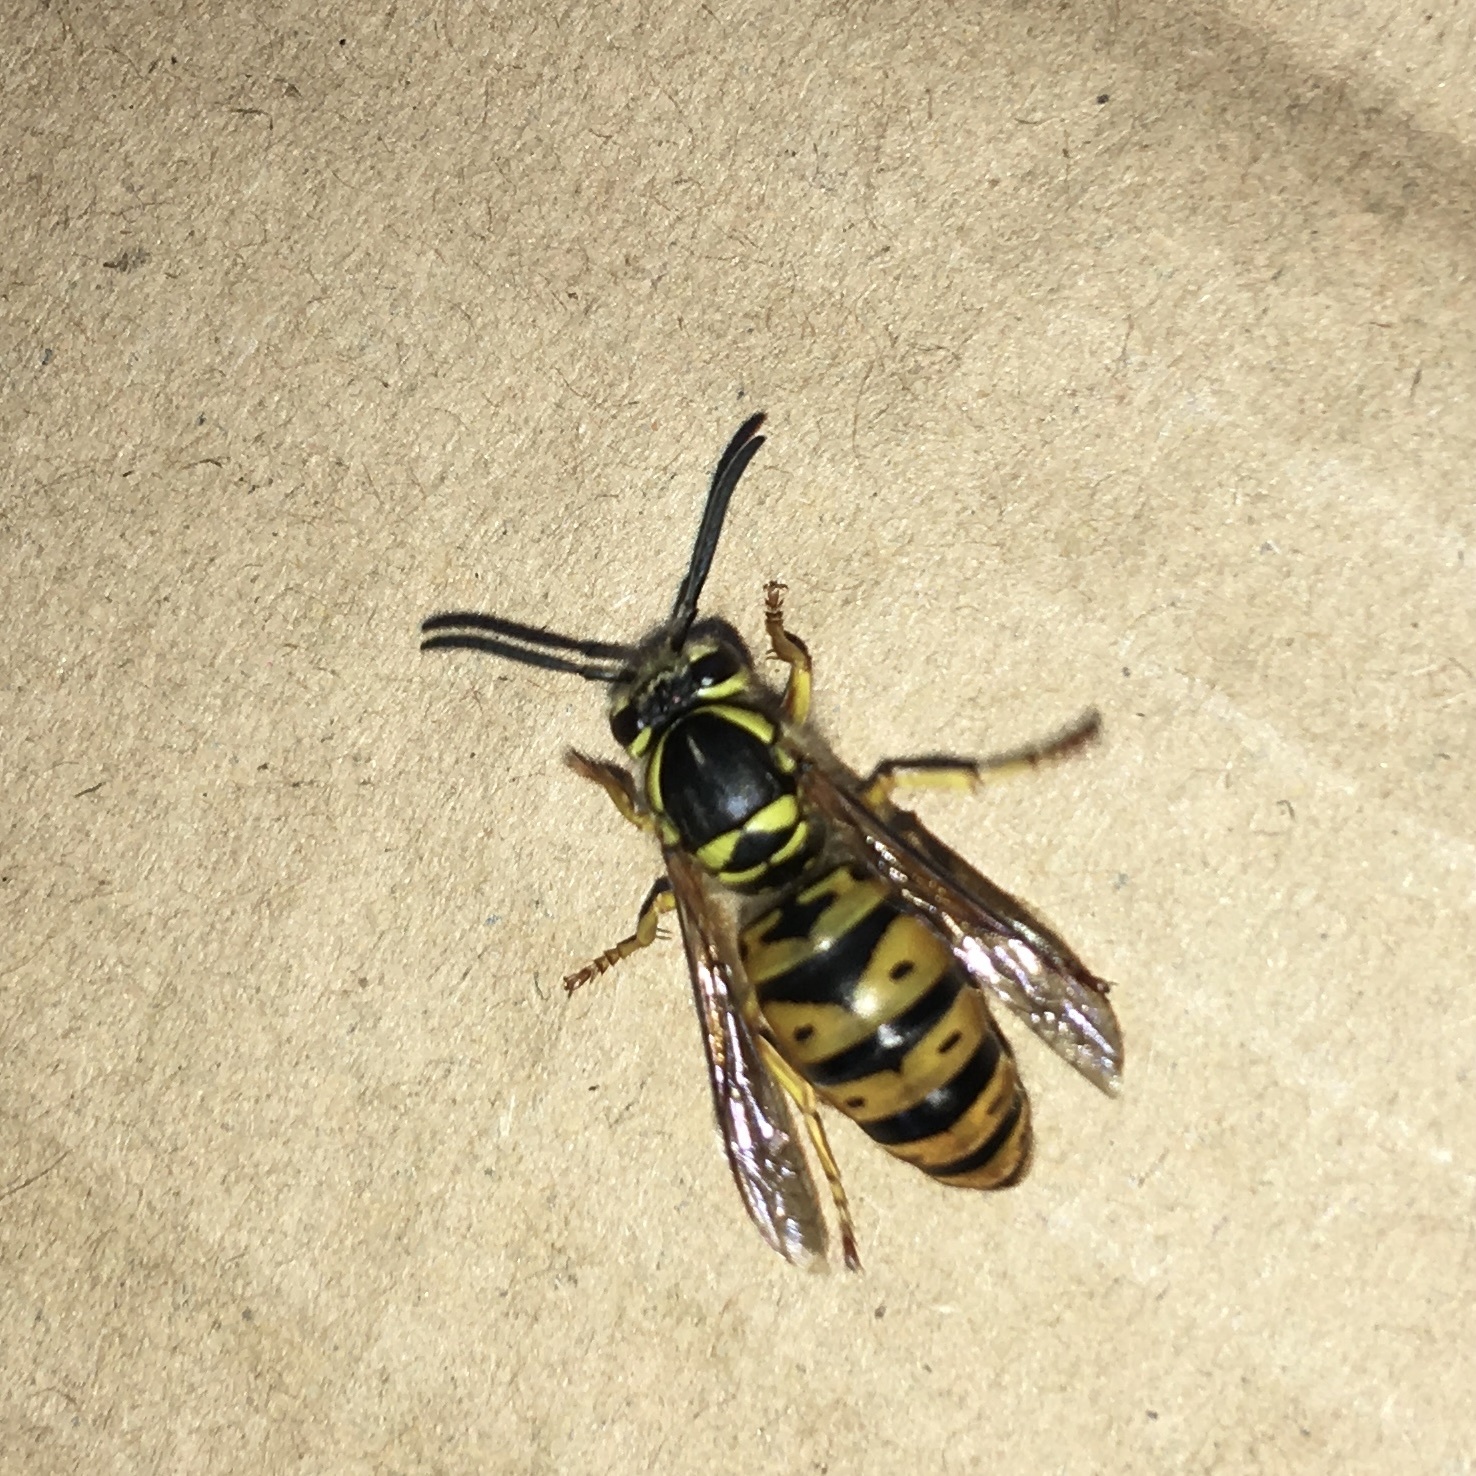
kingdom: Animalia
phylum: Arthropoda
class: Insecta
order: Hymenoptera
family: Vespidae
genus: Vespula
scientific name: Vespula maculifrons
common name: Eastern yellowjacket
